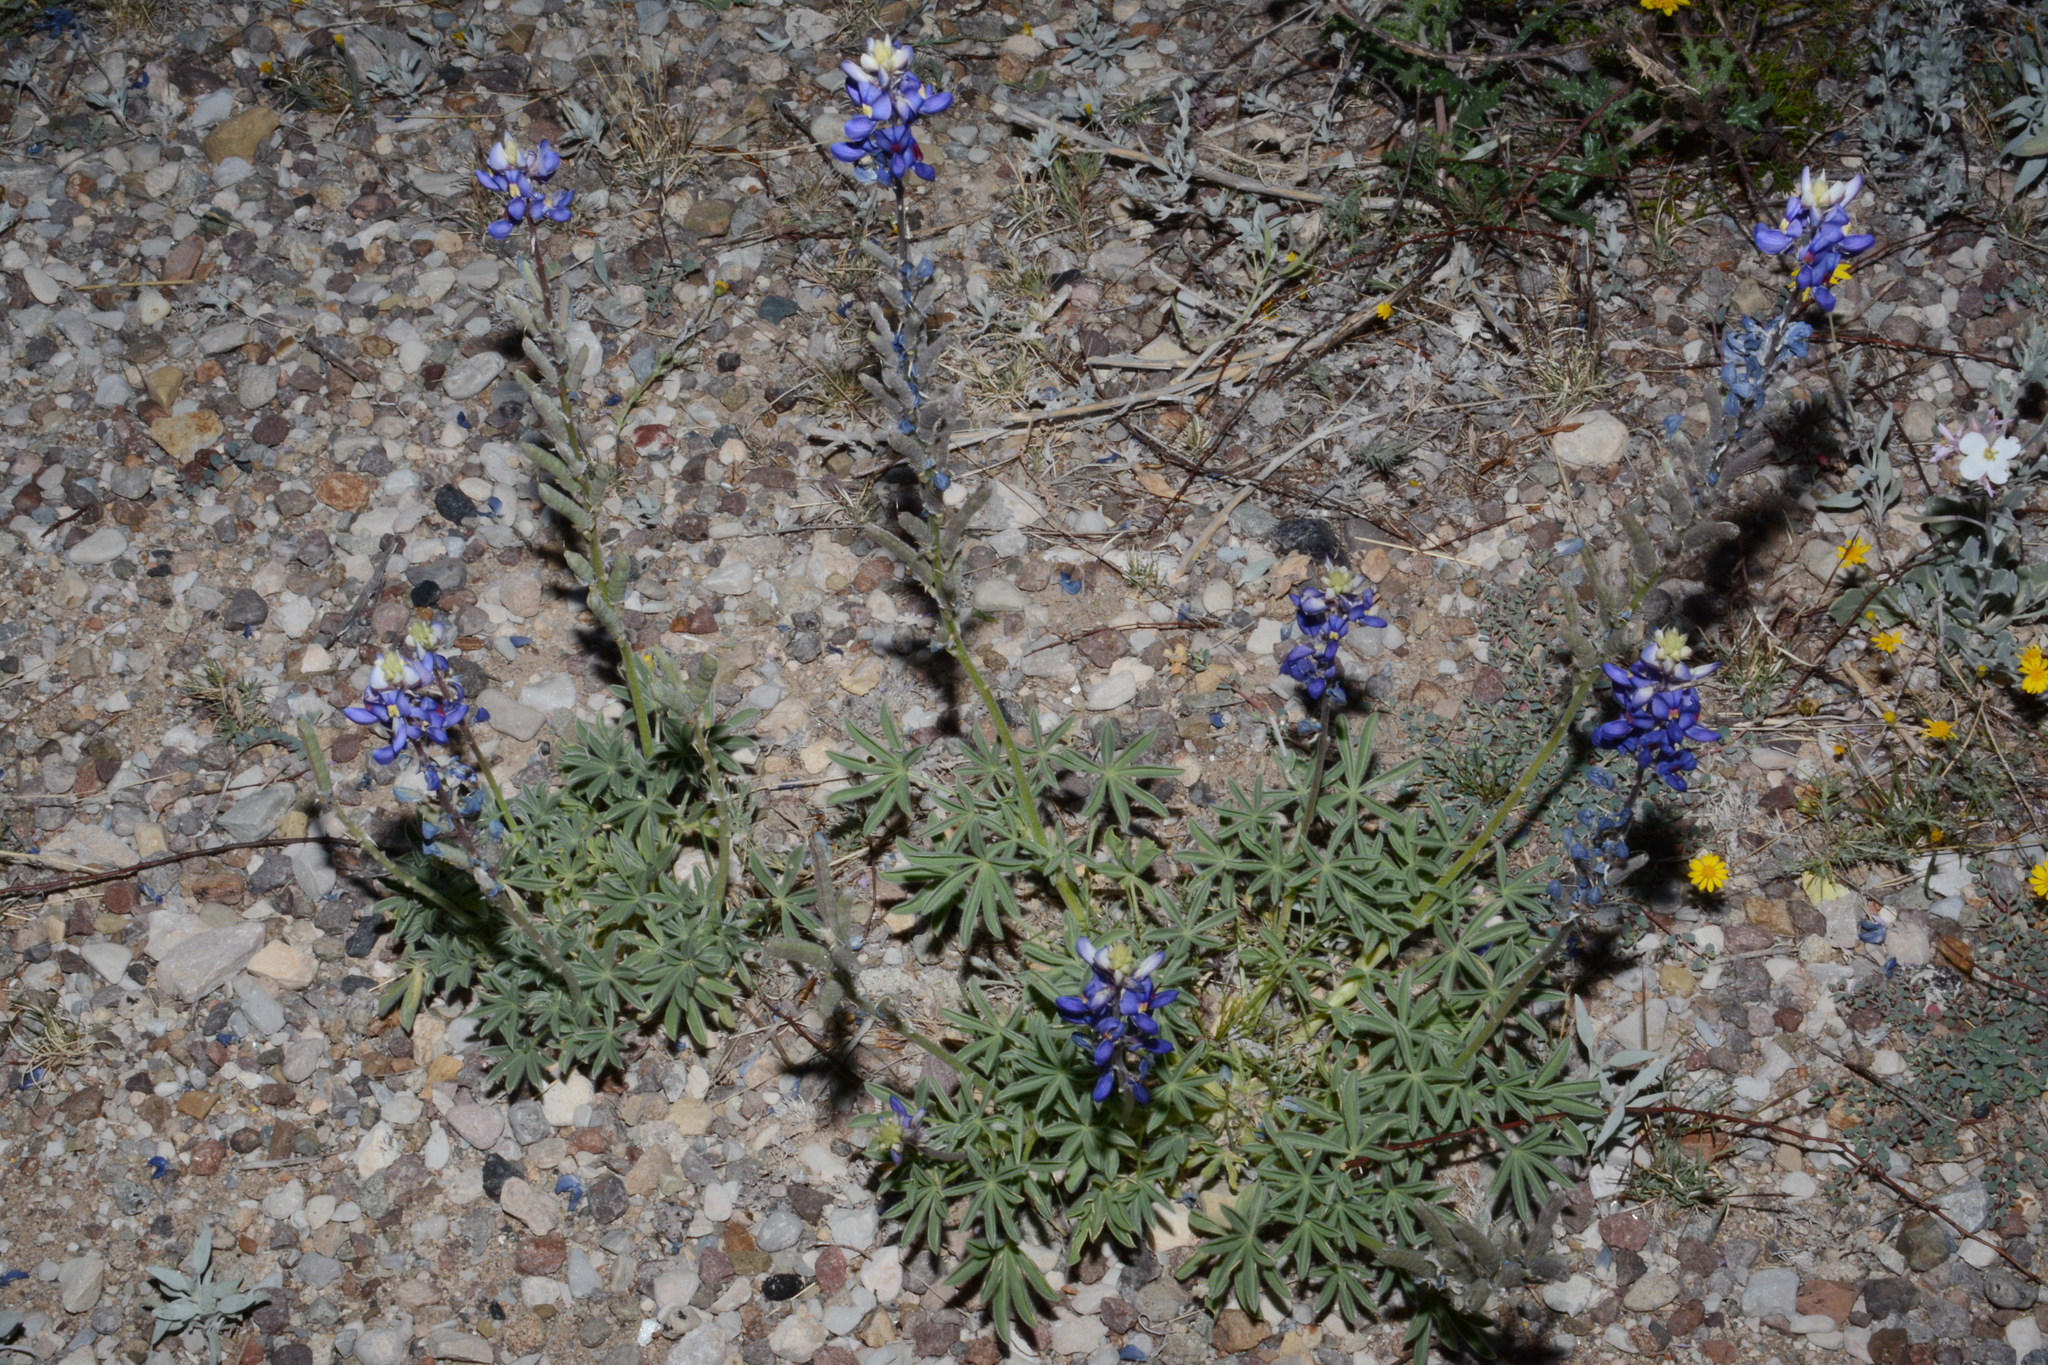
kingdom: Plantae
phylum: Tracheophyta
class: Magnoliopsida
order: Fabales
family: Fabaceae
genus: Lupinus
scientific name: Lupinus havardii
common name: Chisos bluebonnet
